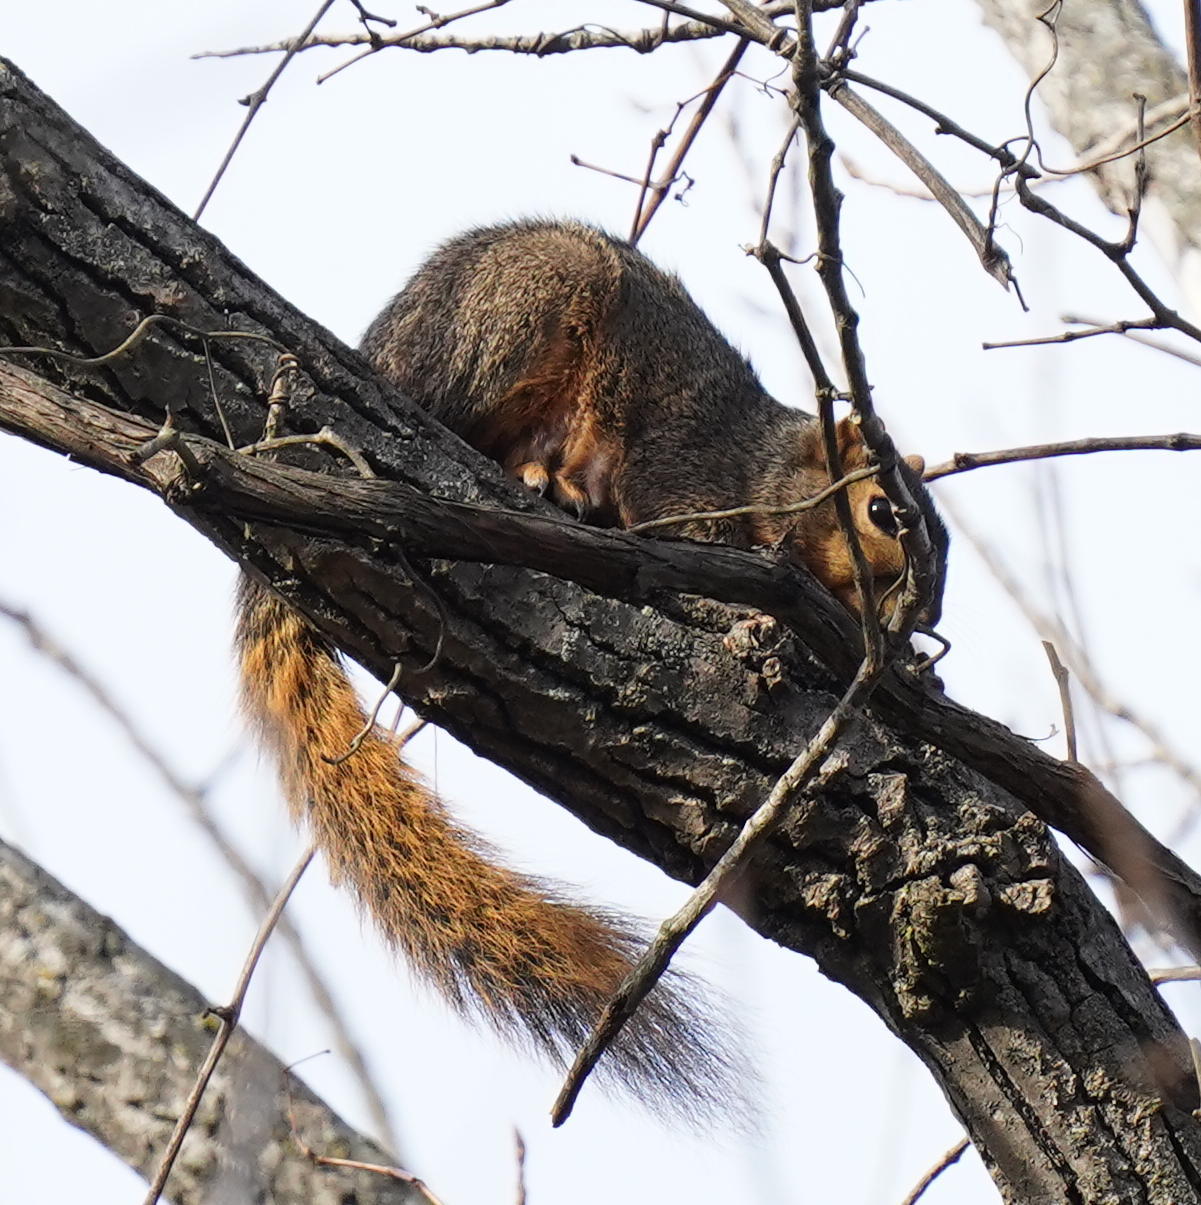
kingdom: Animalia
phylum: Chordata
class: Mammalia
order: Rodentia
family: Sciuridae
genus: Sciurus
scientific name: Sciurus niger
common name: Fox squirrel
